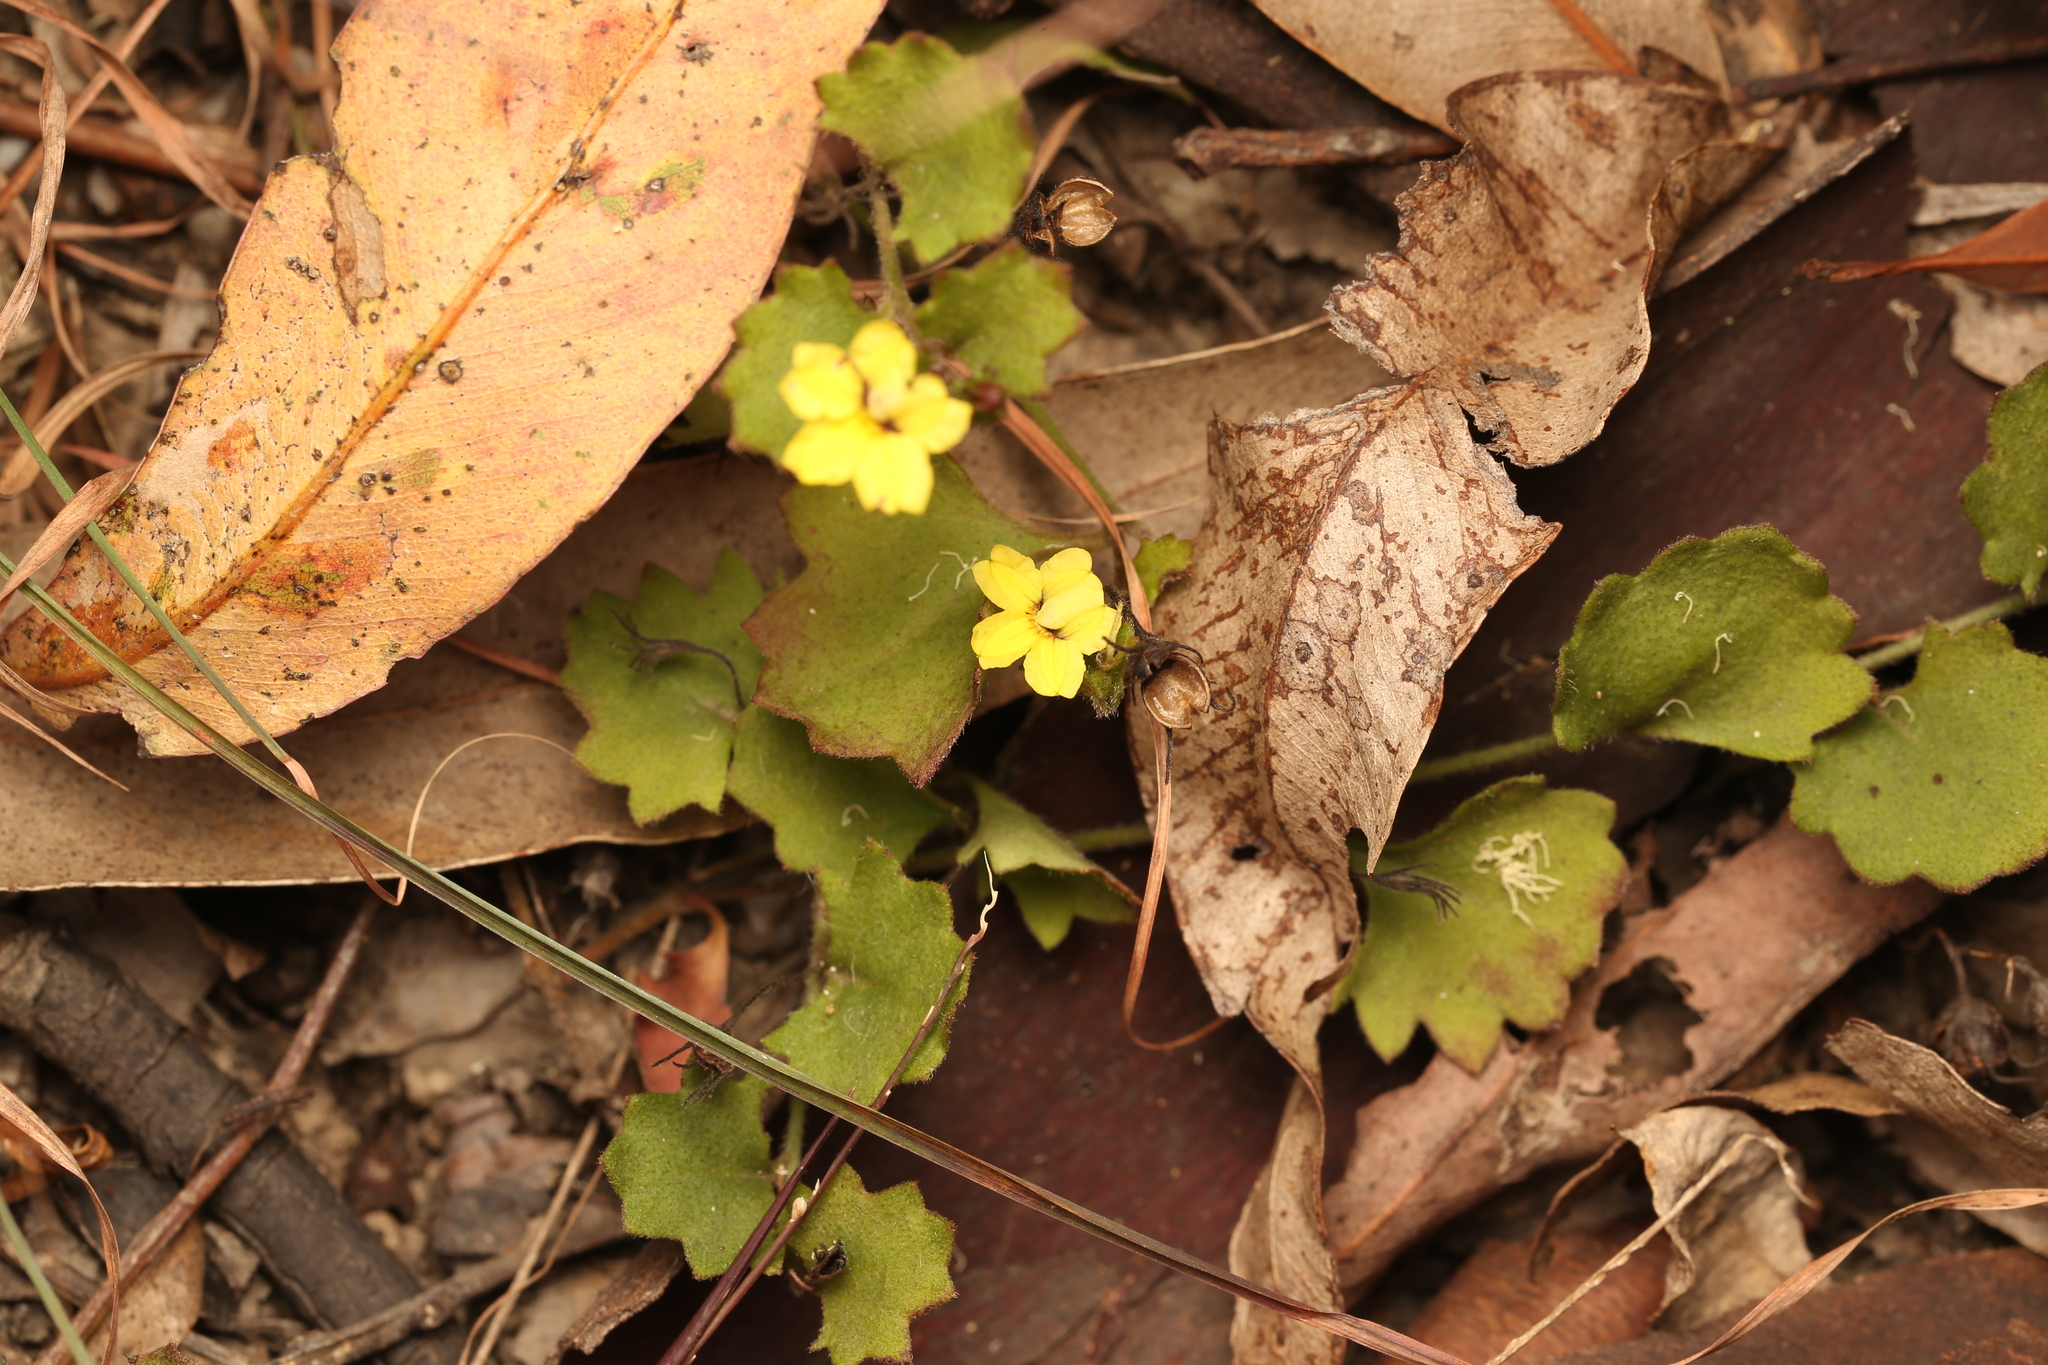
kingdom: Plantae
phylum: Tracheophyta
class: Magnoliopsida
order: Asterales
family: Goodeniaceae
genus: Goodenia
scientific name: Goodenia rotundifolia
